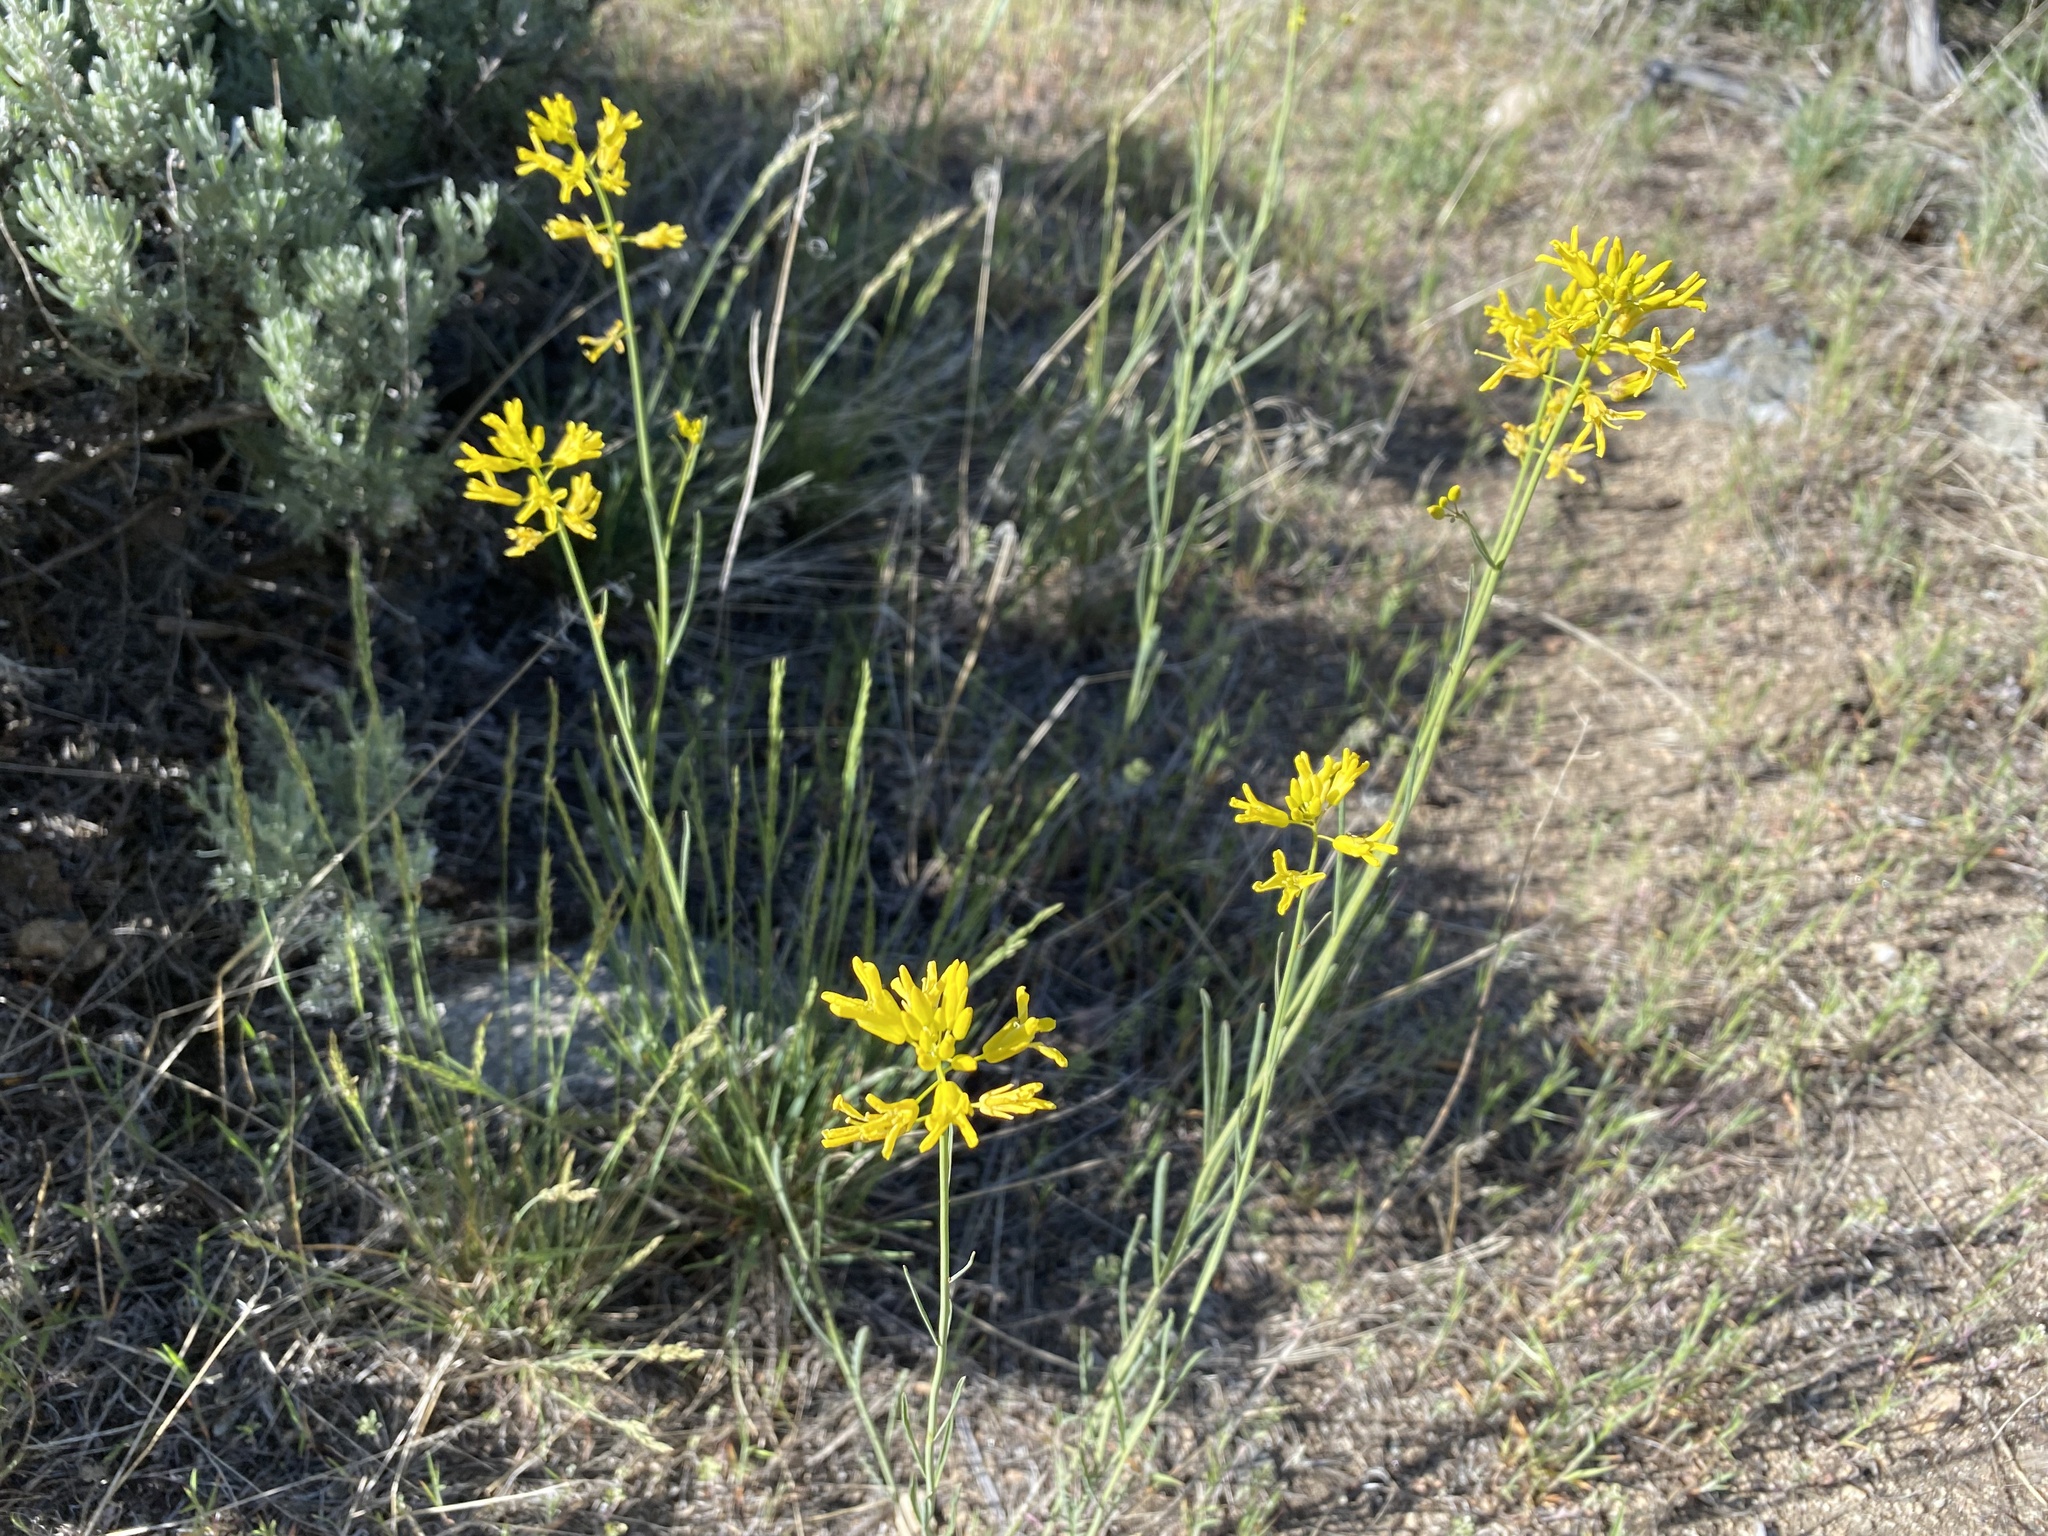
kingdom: Plantae
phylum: Tracheophyta
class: Magnoliopsida
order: Brassicales
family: Brassicaceae
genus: Sisymbrium
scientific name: Sisymbrium linifolium
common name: Salmon river plains mustard
